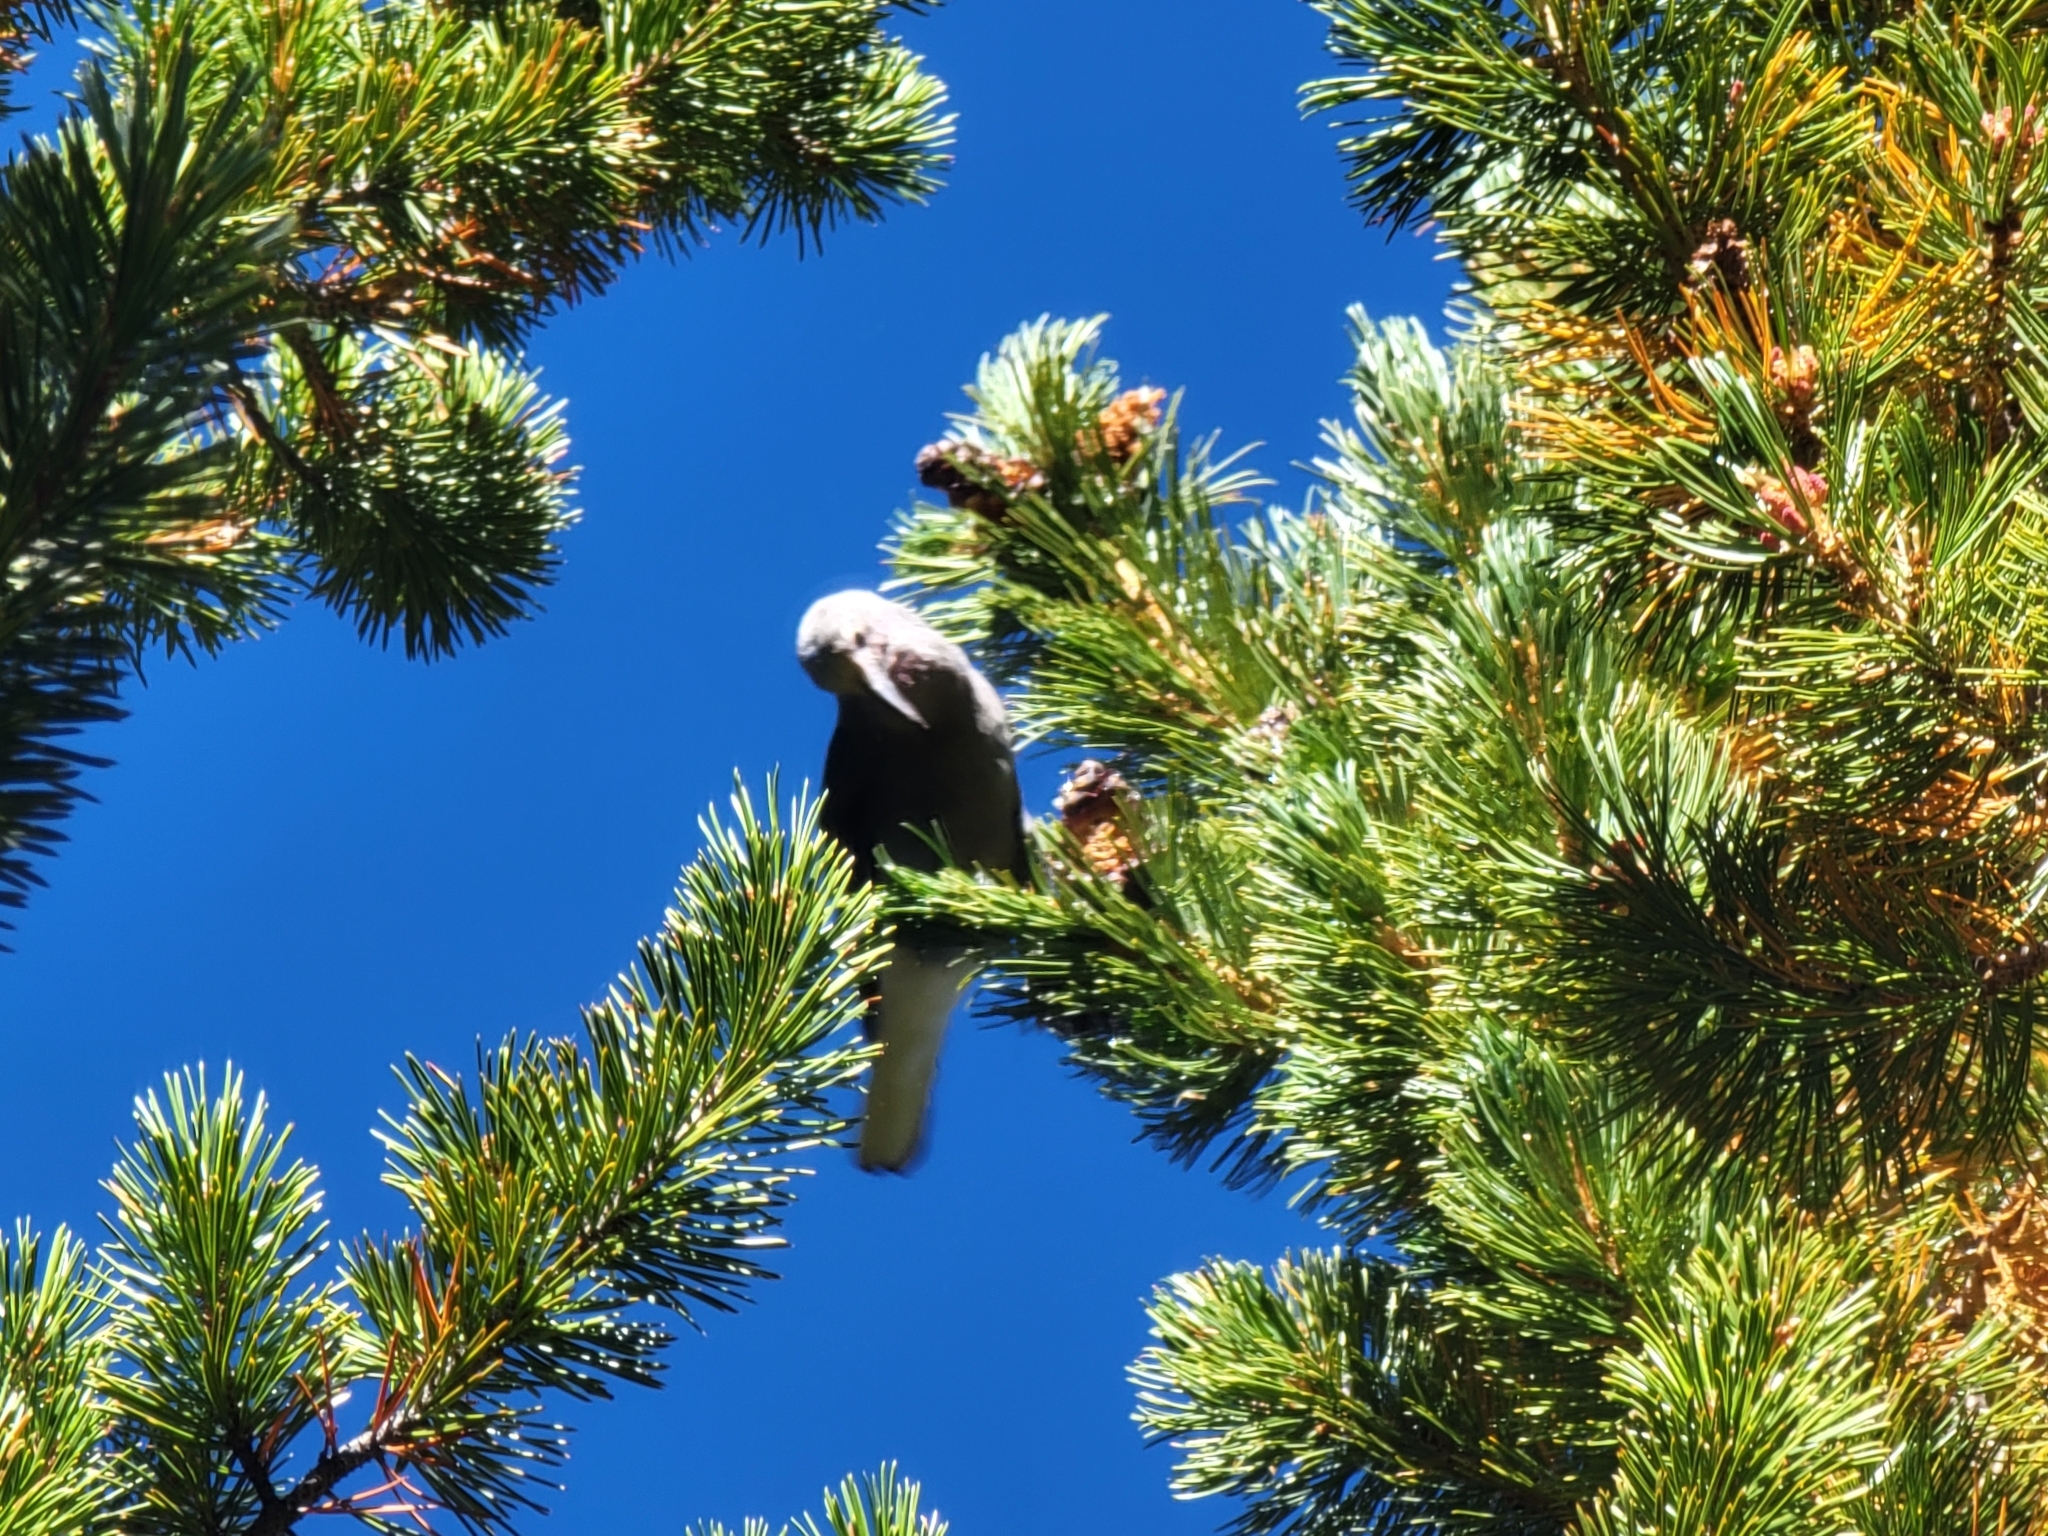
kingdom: Animalia
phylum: Chordata
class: Aves
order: Passeriformes
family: Corvidae
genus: Nucifraga
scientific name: Nucifraga columbiana
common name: Clark's nutcracker
